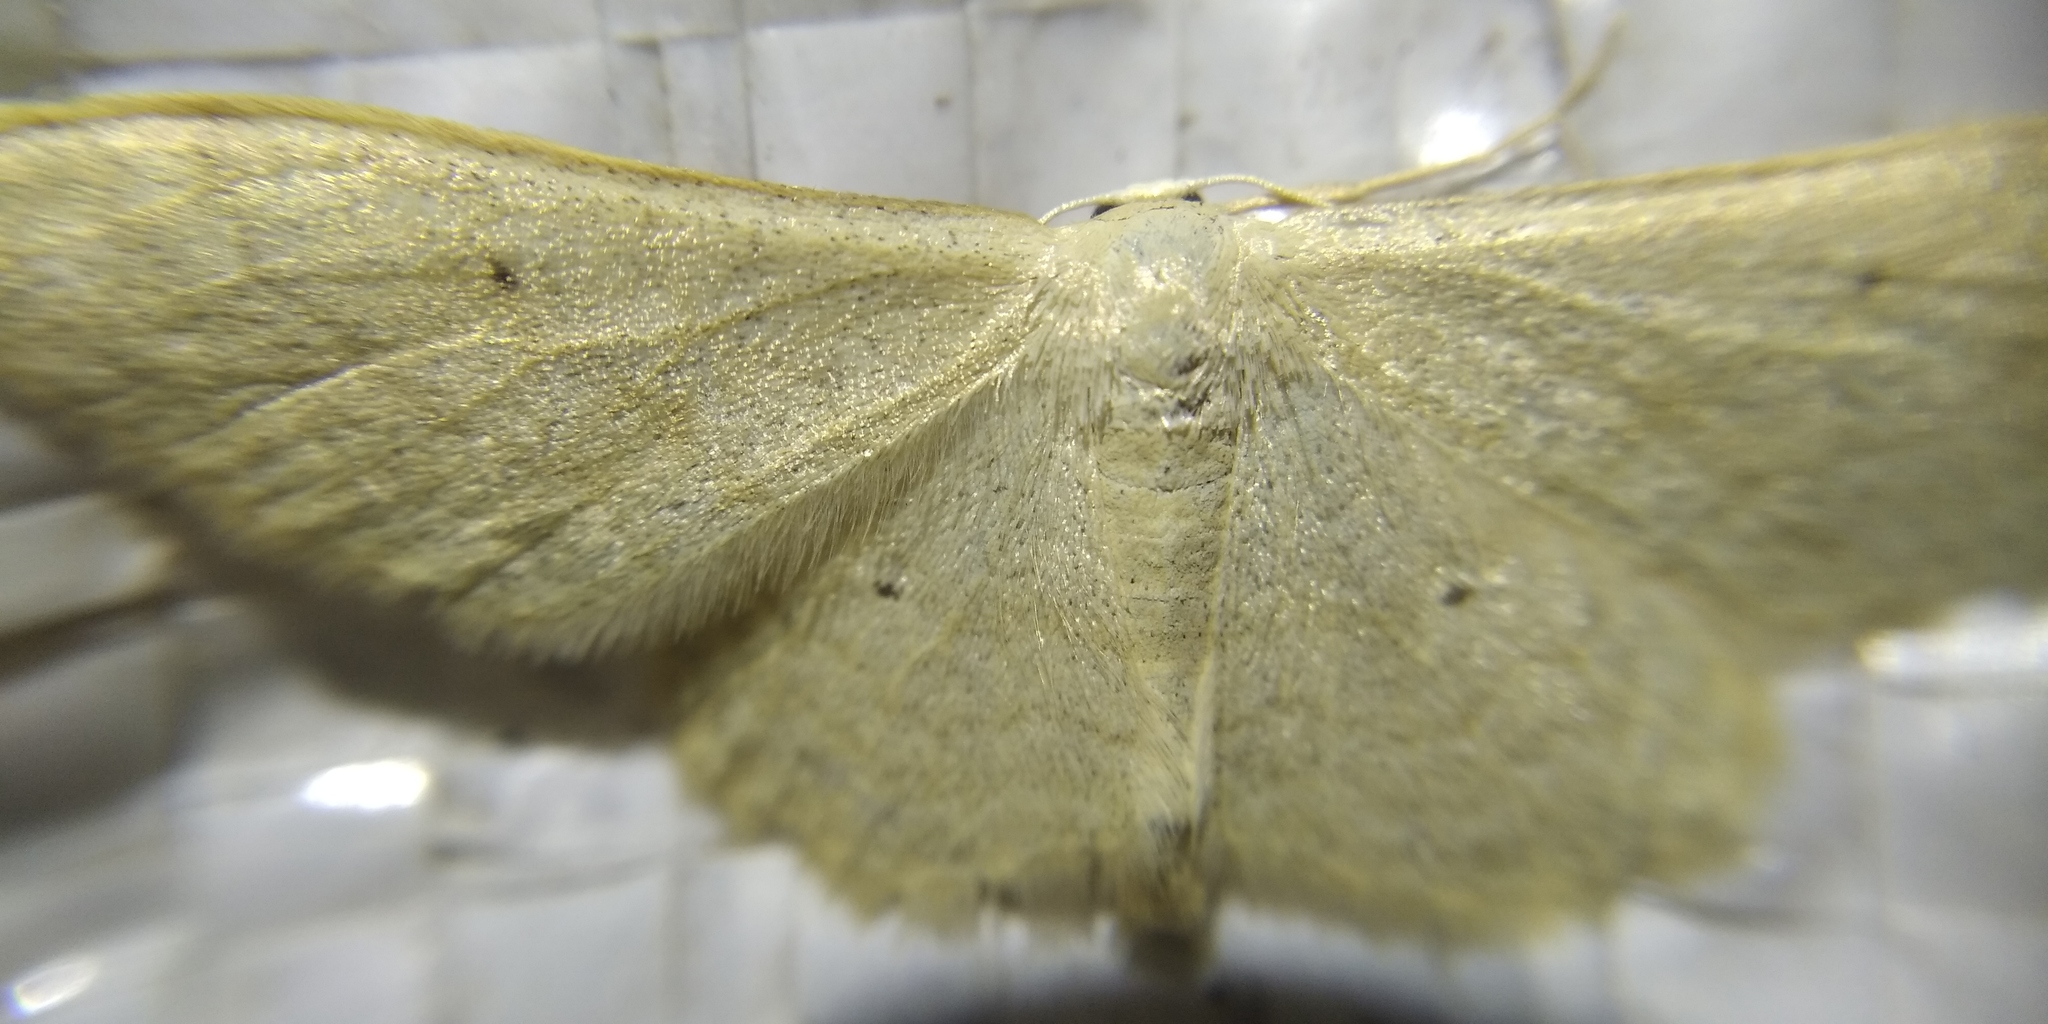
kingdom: Animalia
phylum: Arthropoda
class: Insecta
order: Lepidoptera
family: Geometridae
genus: Idaea
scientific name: Idaea straminata
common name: Plain wave
